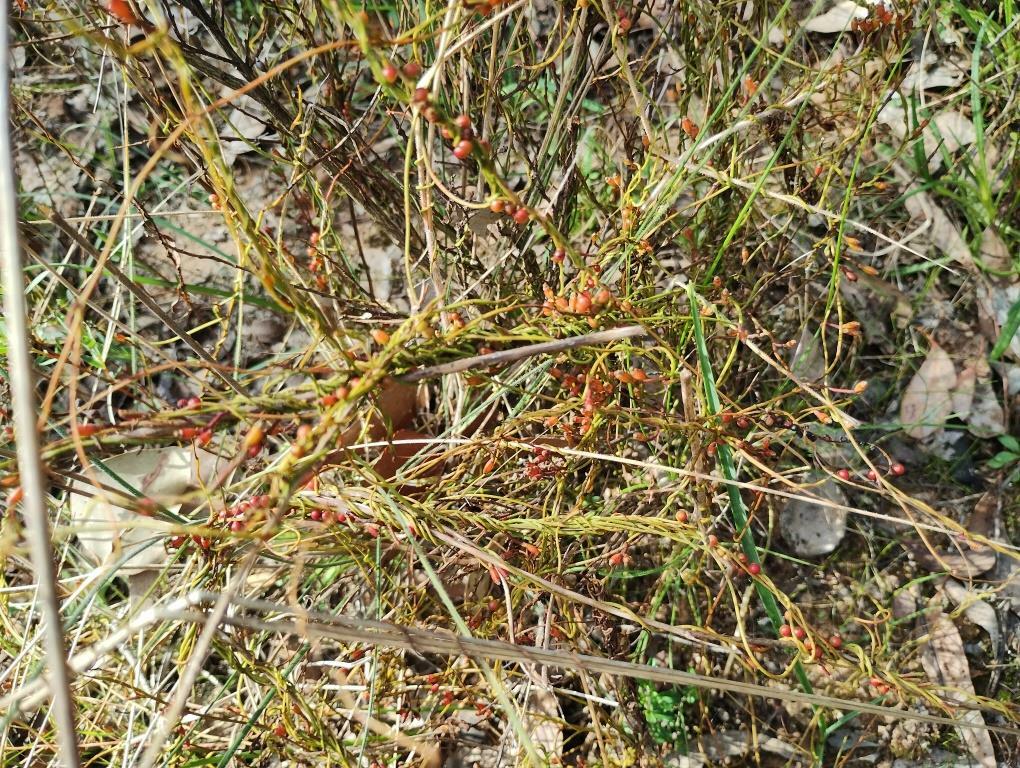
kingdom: Plantae
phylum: Tracheophyta
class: Magnoliopsida
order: Laurales
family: Lauraceae
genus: Cassytha
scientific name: Cassytha glabella
